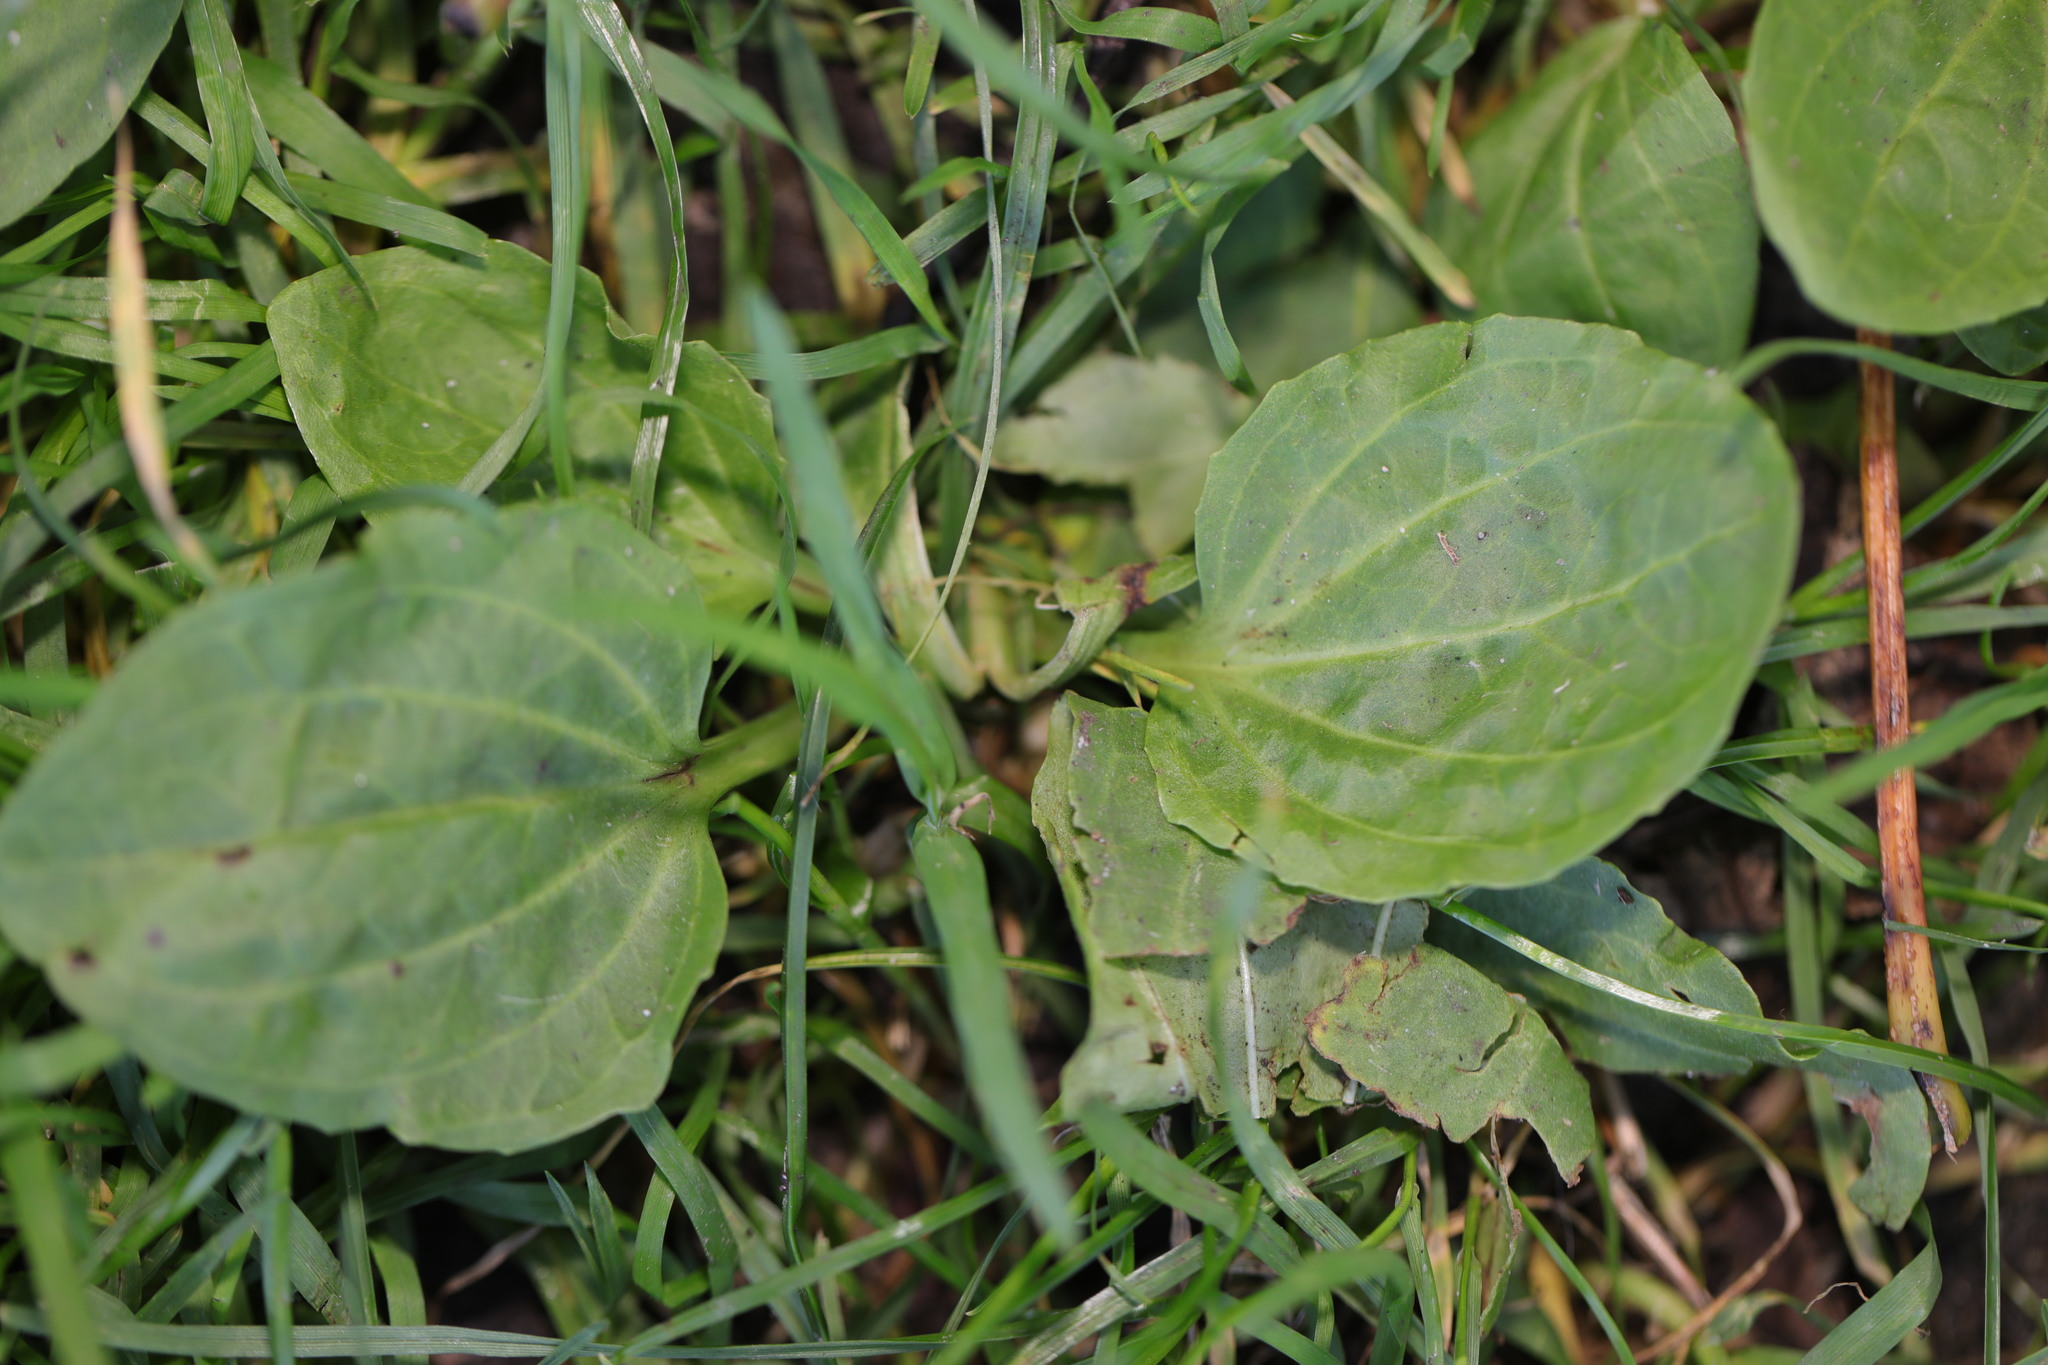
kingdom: Plantae
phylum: Tracheophyta
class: Magnoliopsida
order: Lamiales
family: Plantaginaceae
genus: Plantago
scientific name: Plantago major
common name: Common plantain
